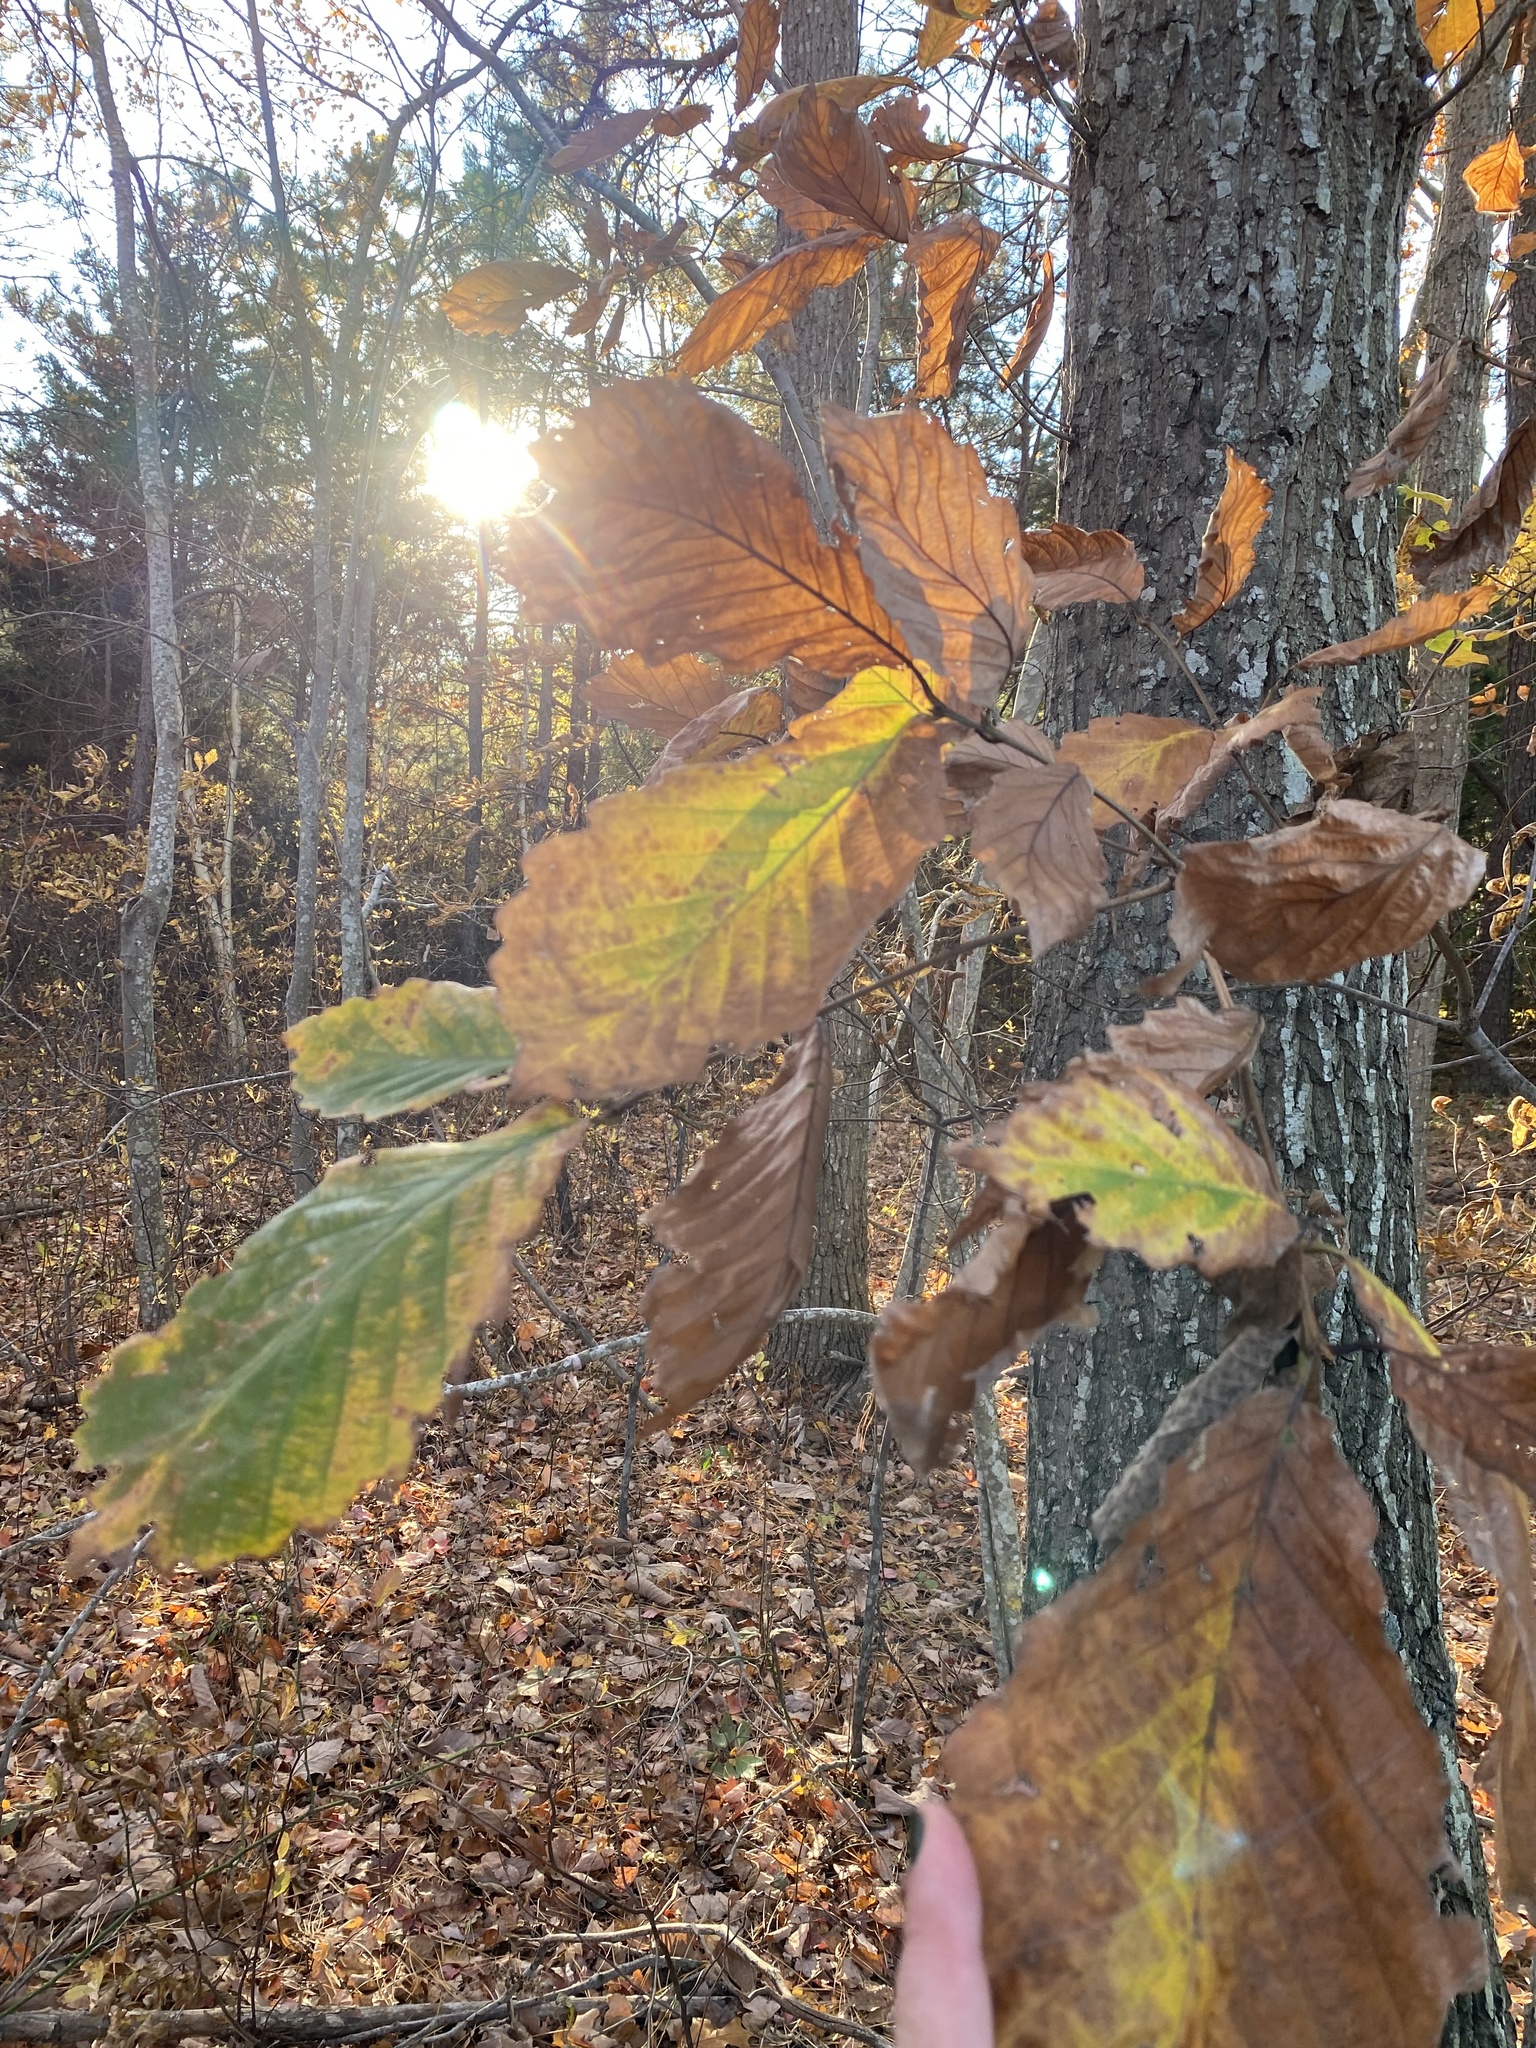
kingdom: Plantae
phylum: Tracheophyta
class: Magnoliopsida
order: Fagales
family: Fagaceae
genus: Quercus
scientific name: Quercus montana
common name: Chestnut oak
